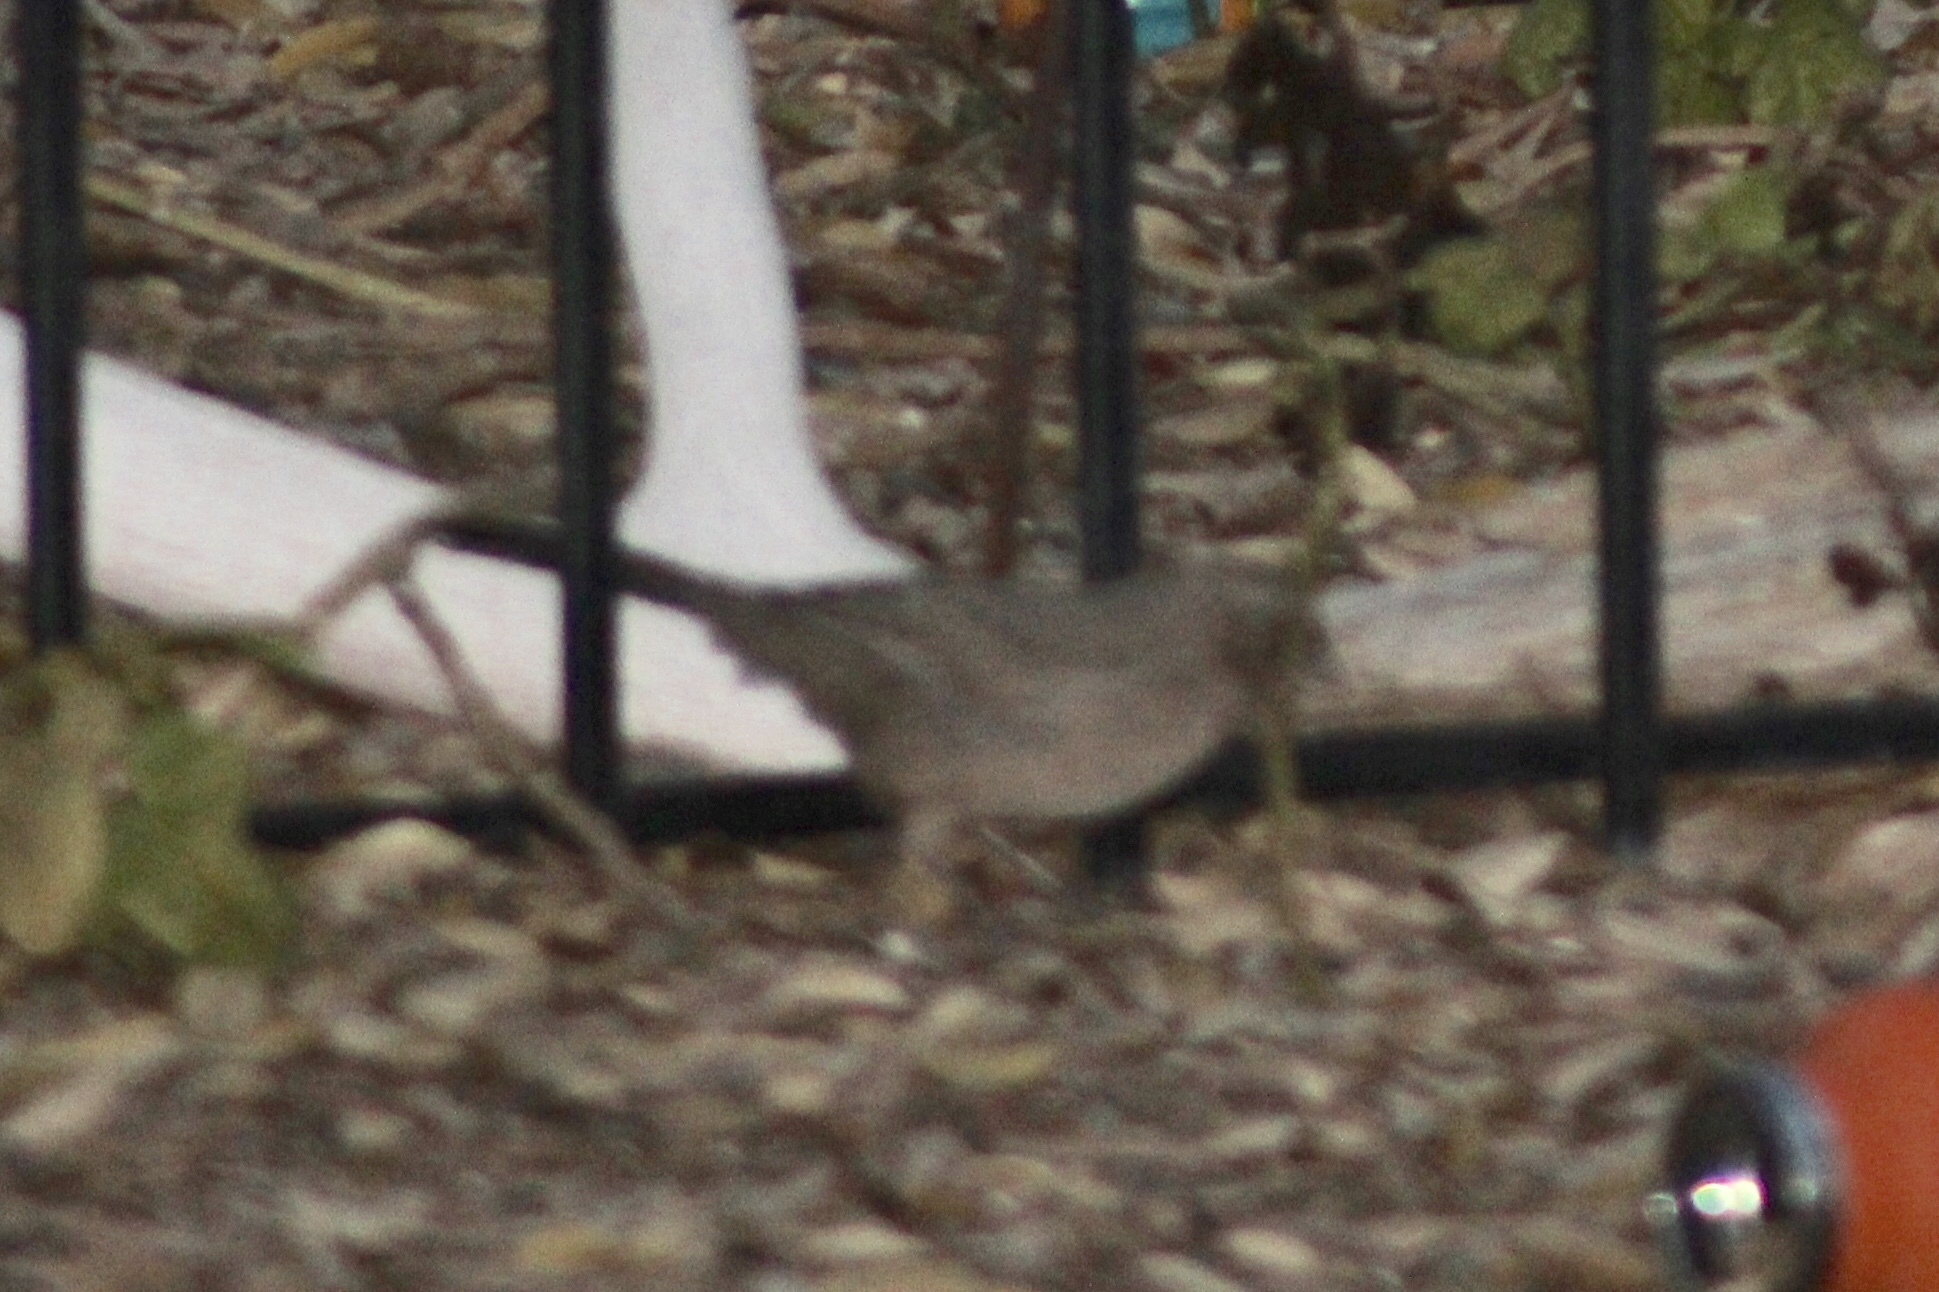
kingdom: Animalia
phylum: Chordata
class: Aves
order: Passeriformes
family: Passerellidae
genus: Melozone
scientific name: Melozone aberti
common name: Abert's towhee
